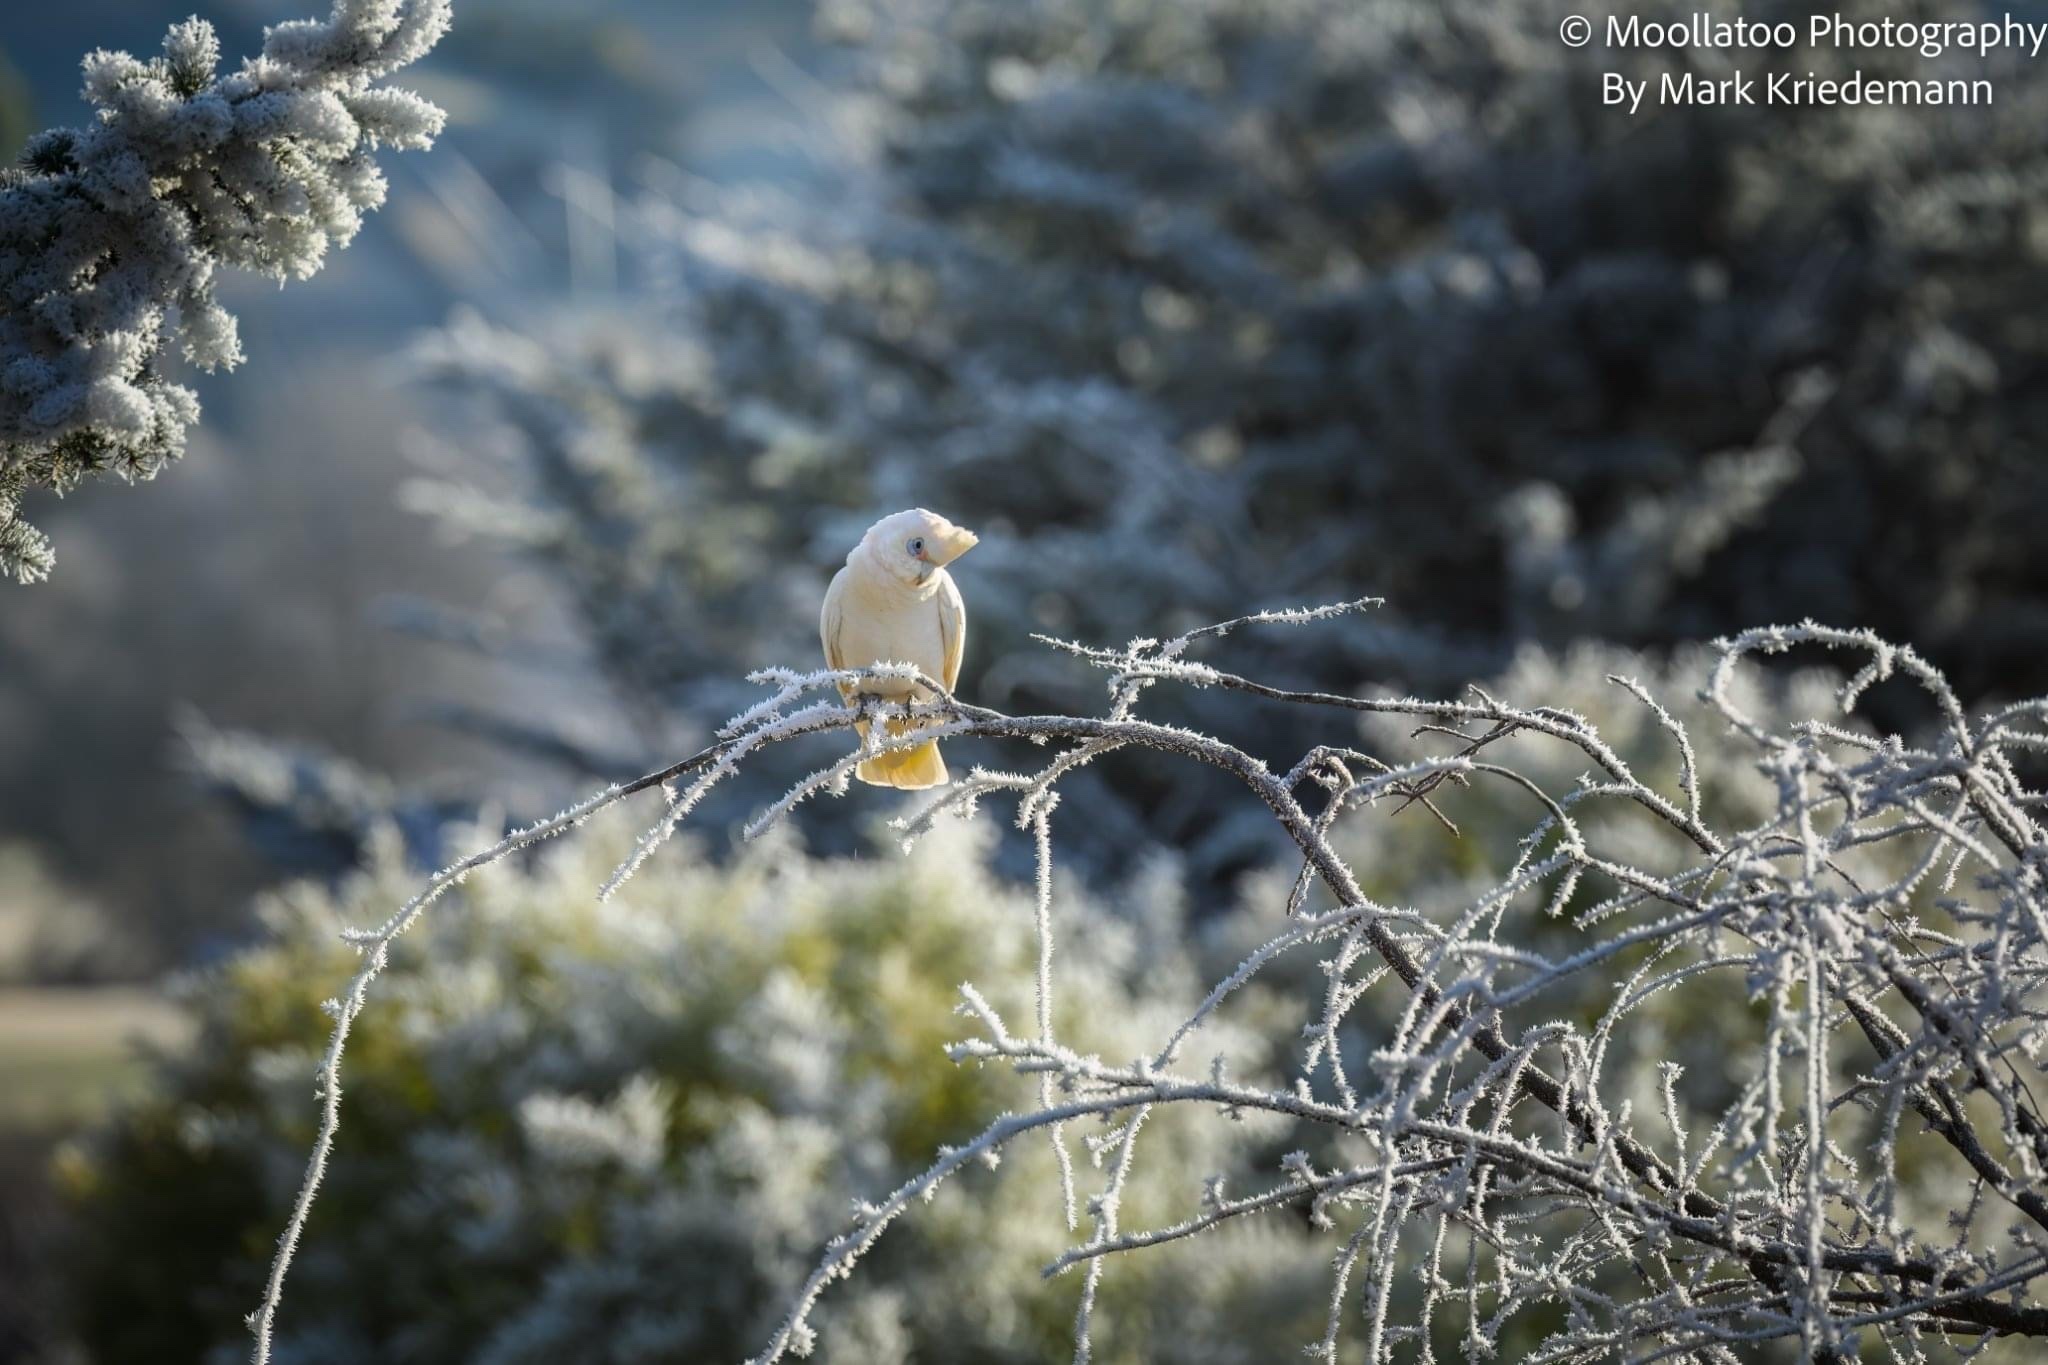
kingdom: Animalia
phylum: Chordata
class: Aves
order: Psittaciformes
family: Psittacidae
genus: Cacatua
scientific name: Cacatua sanguinea
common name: Little corella
